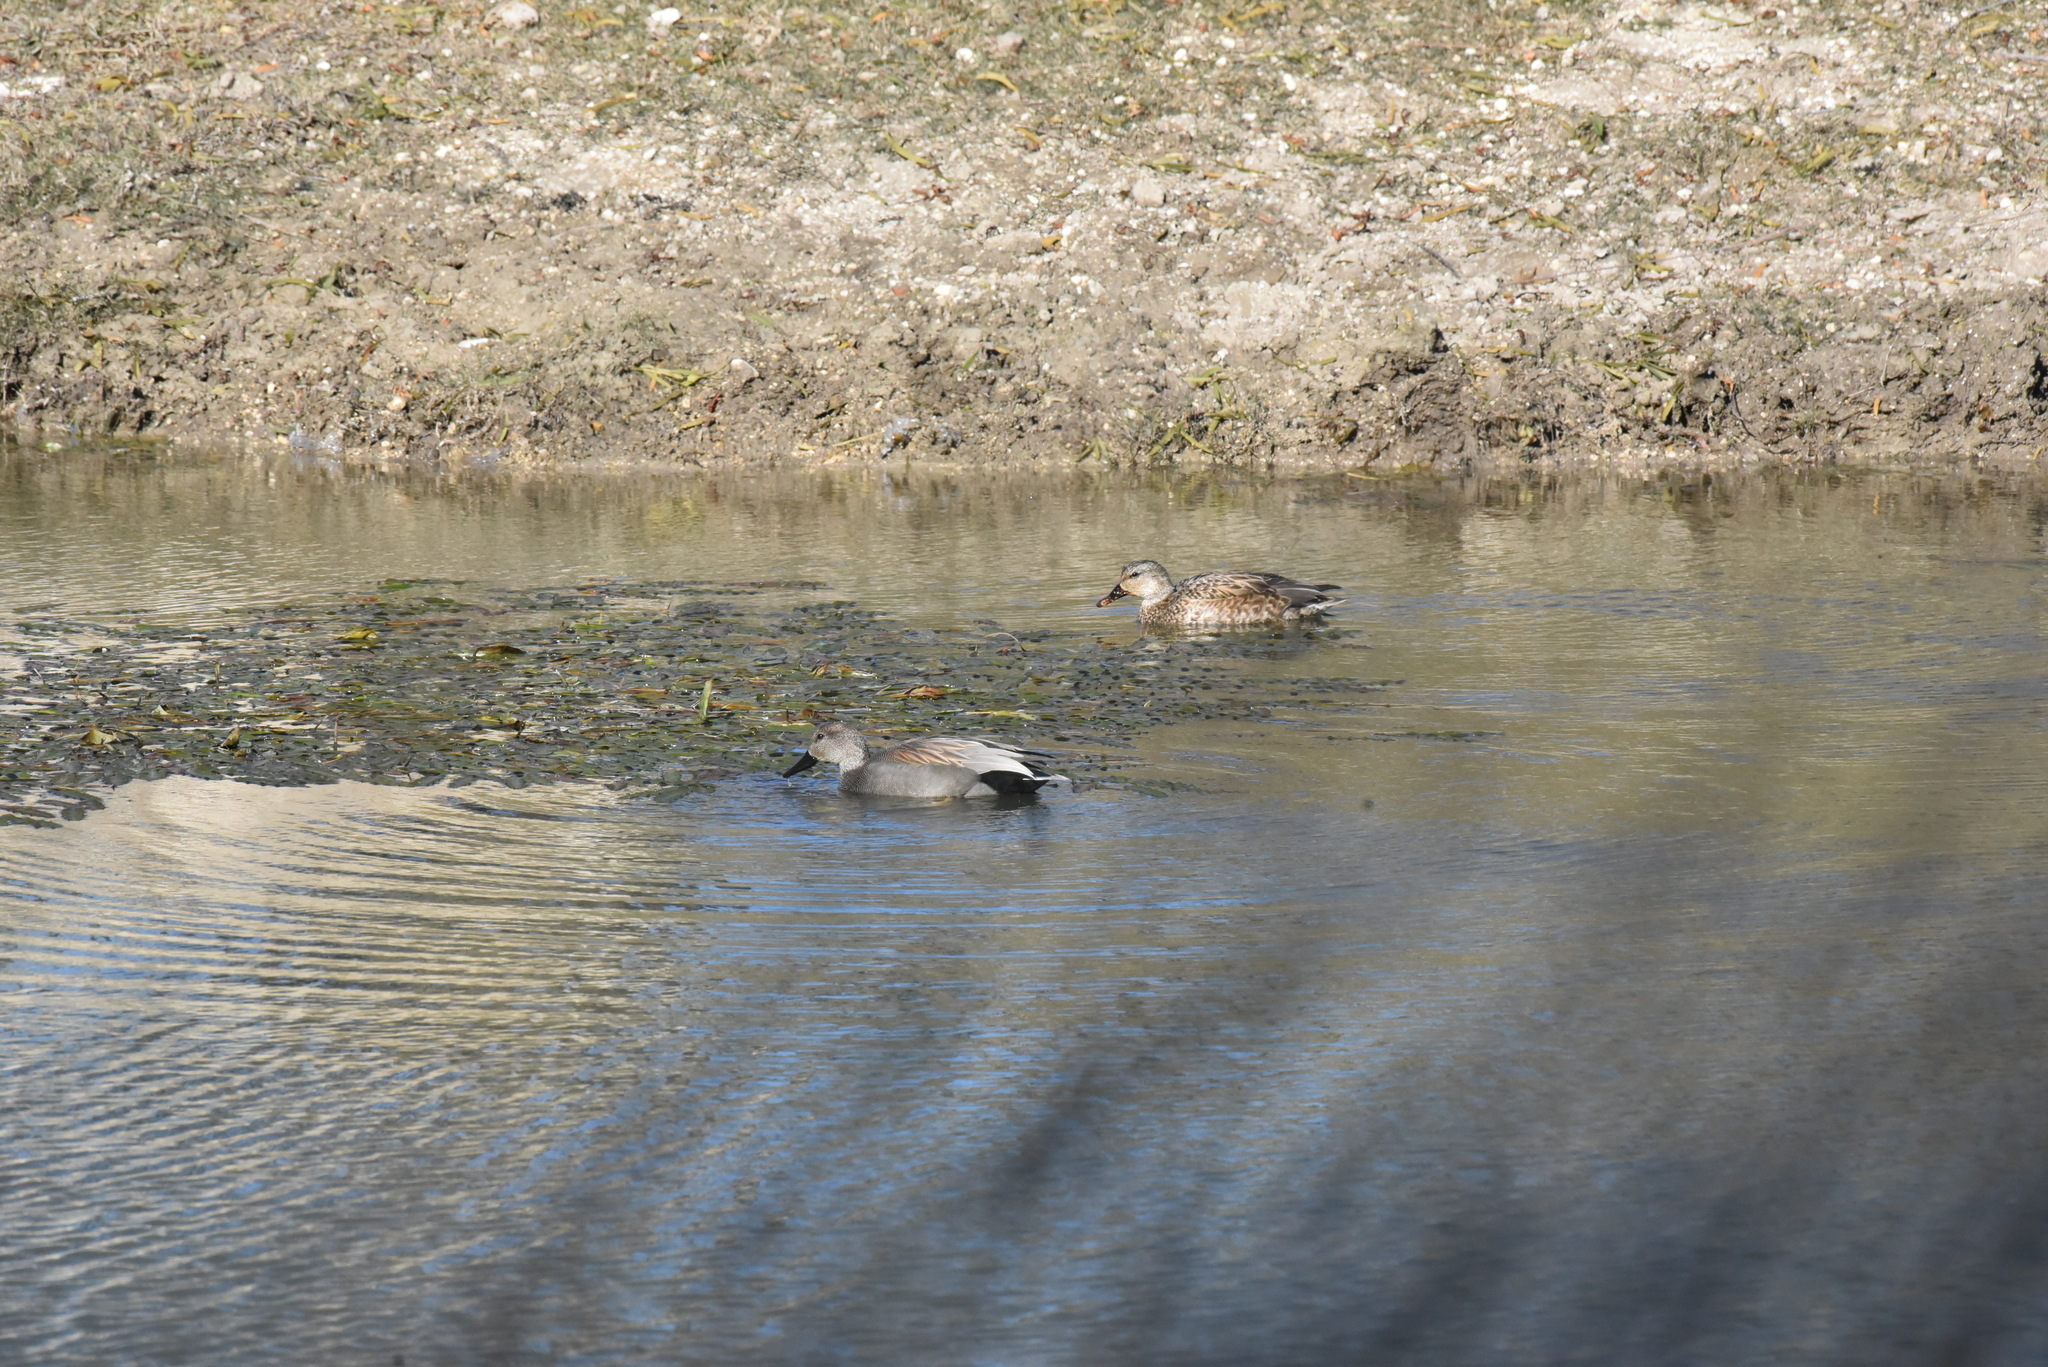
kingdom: Animalia
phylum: Chordata
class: Aves
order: Anseriformes
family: Anatidae
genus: Mareca
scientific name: Mareca strepera
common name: Gadwall
